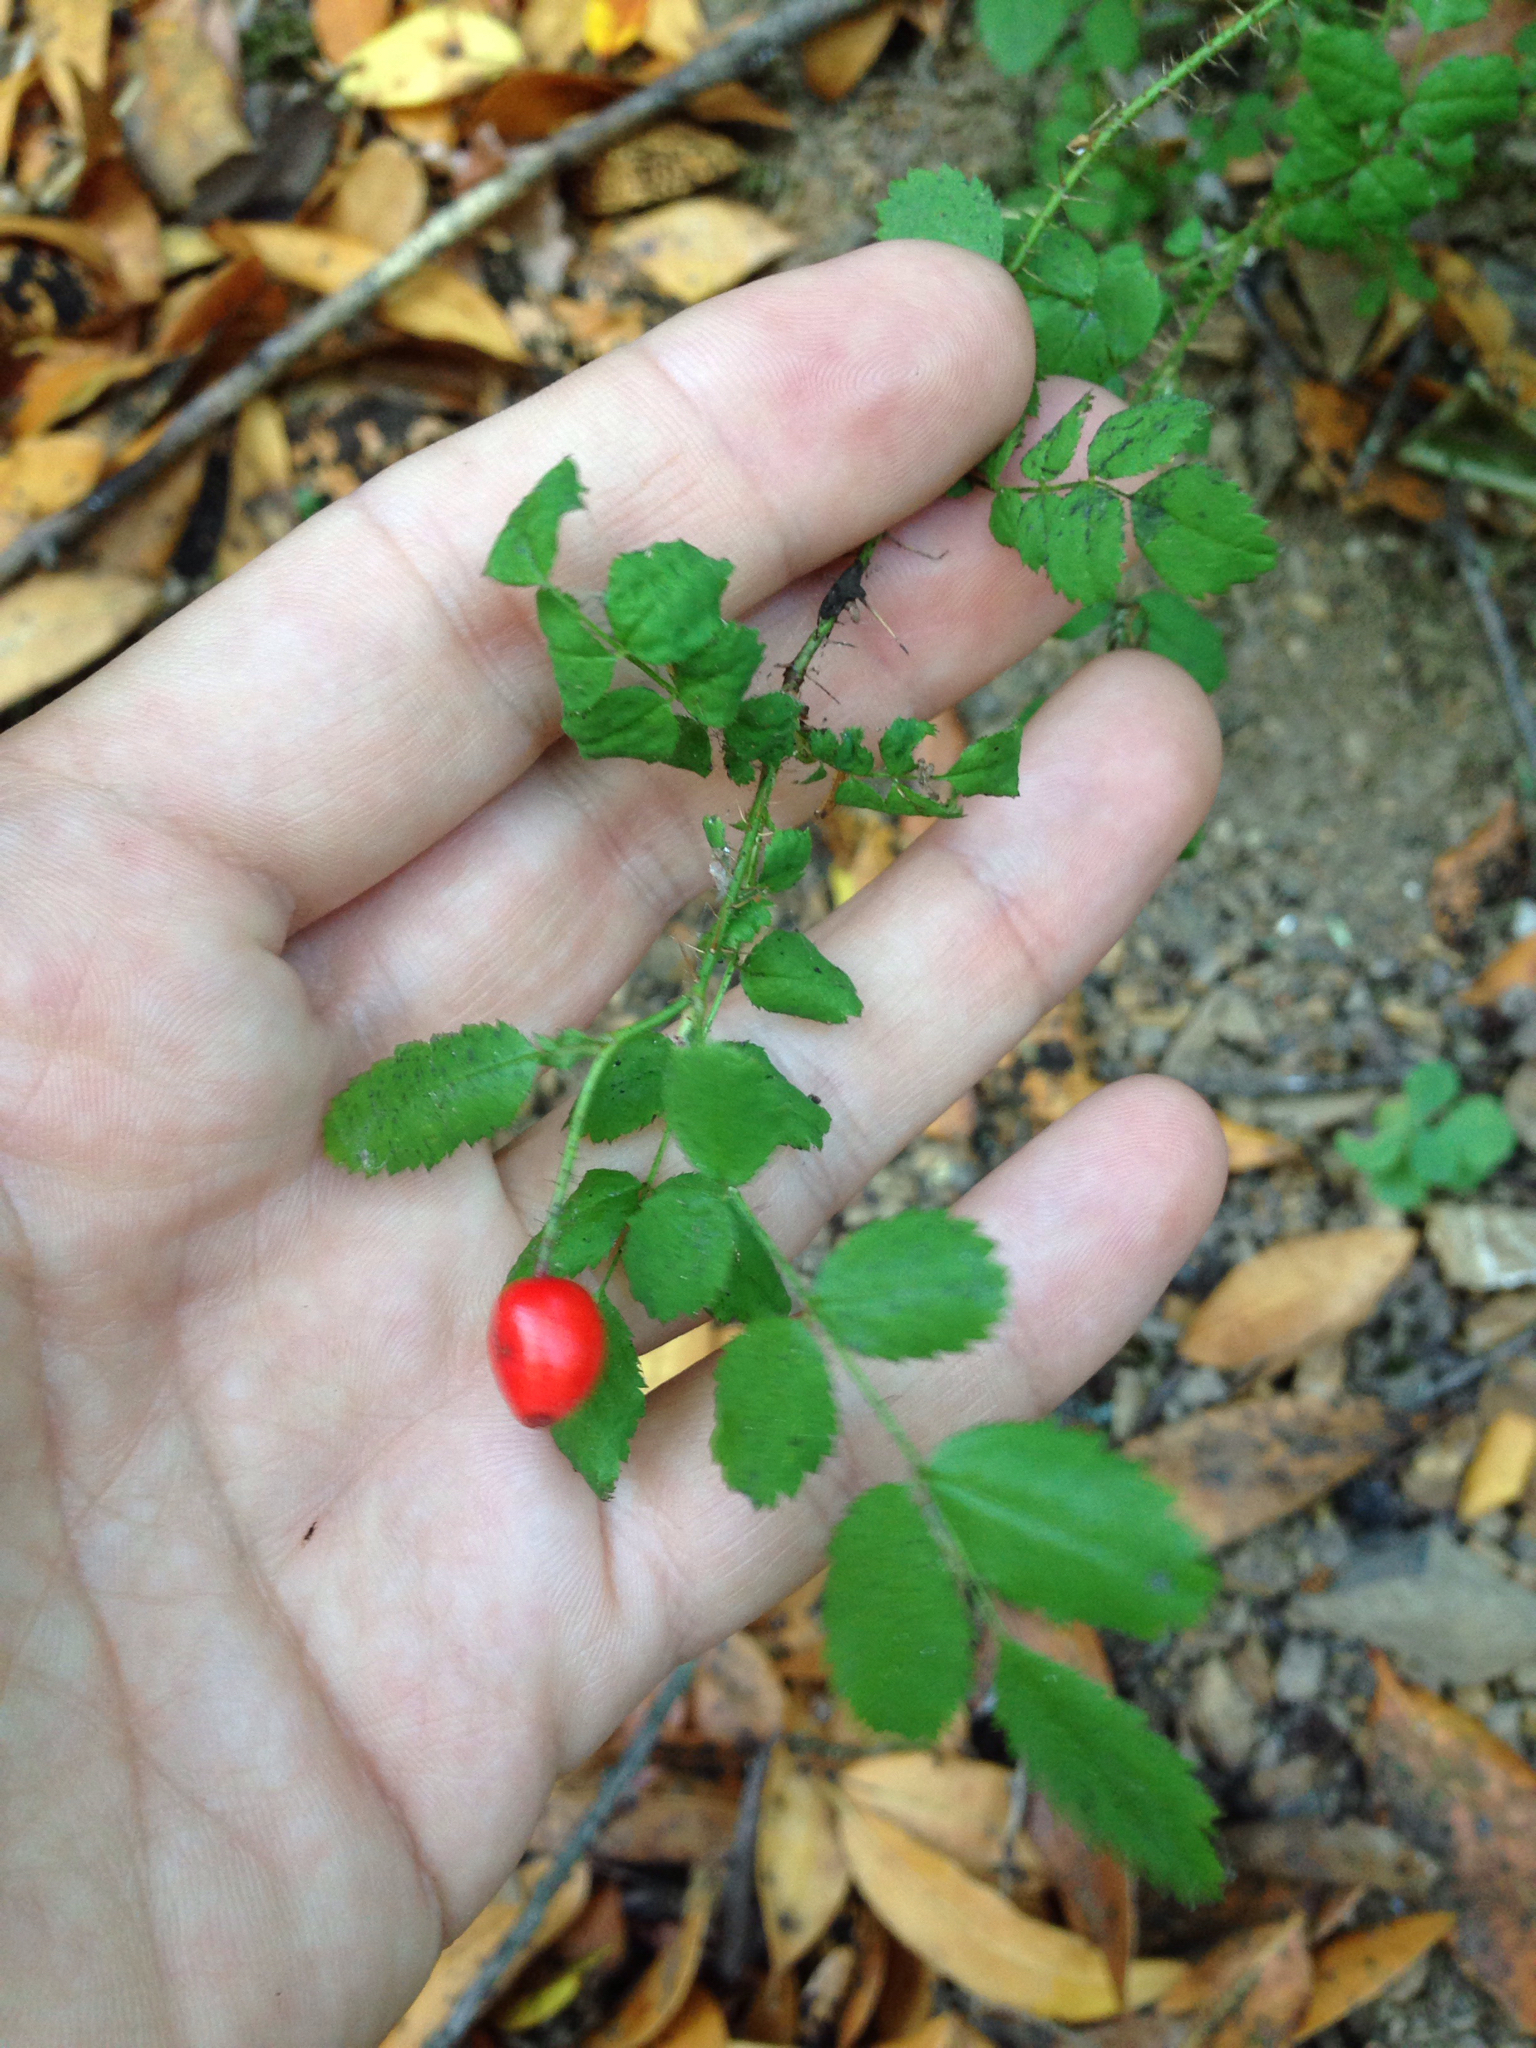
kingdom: Plantae
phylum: Tracheophyta
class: Magnoliopsida
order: Rosales
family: Rosaceae
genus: Rosa
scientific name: Rosa gymnocarpa
